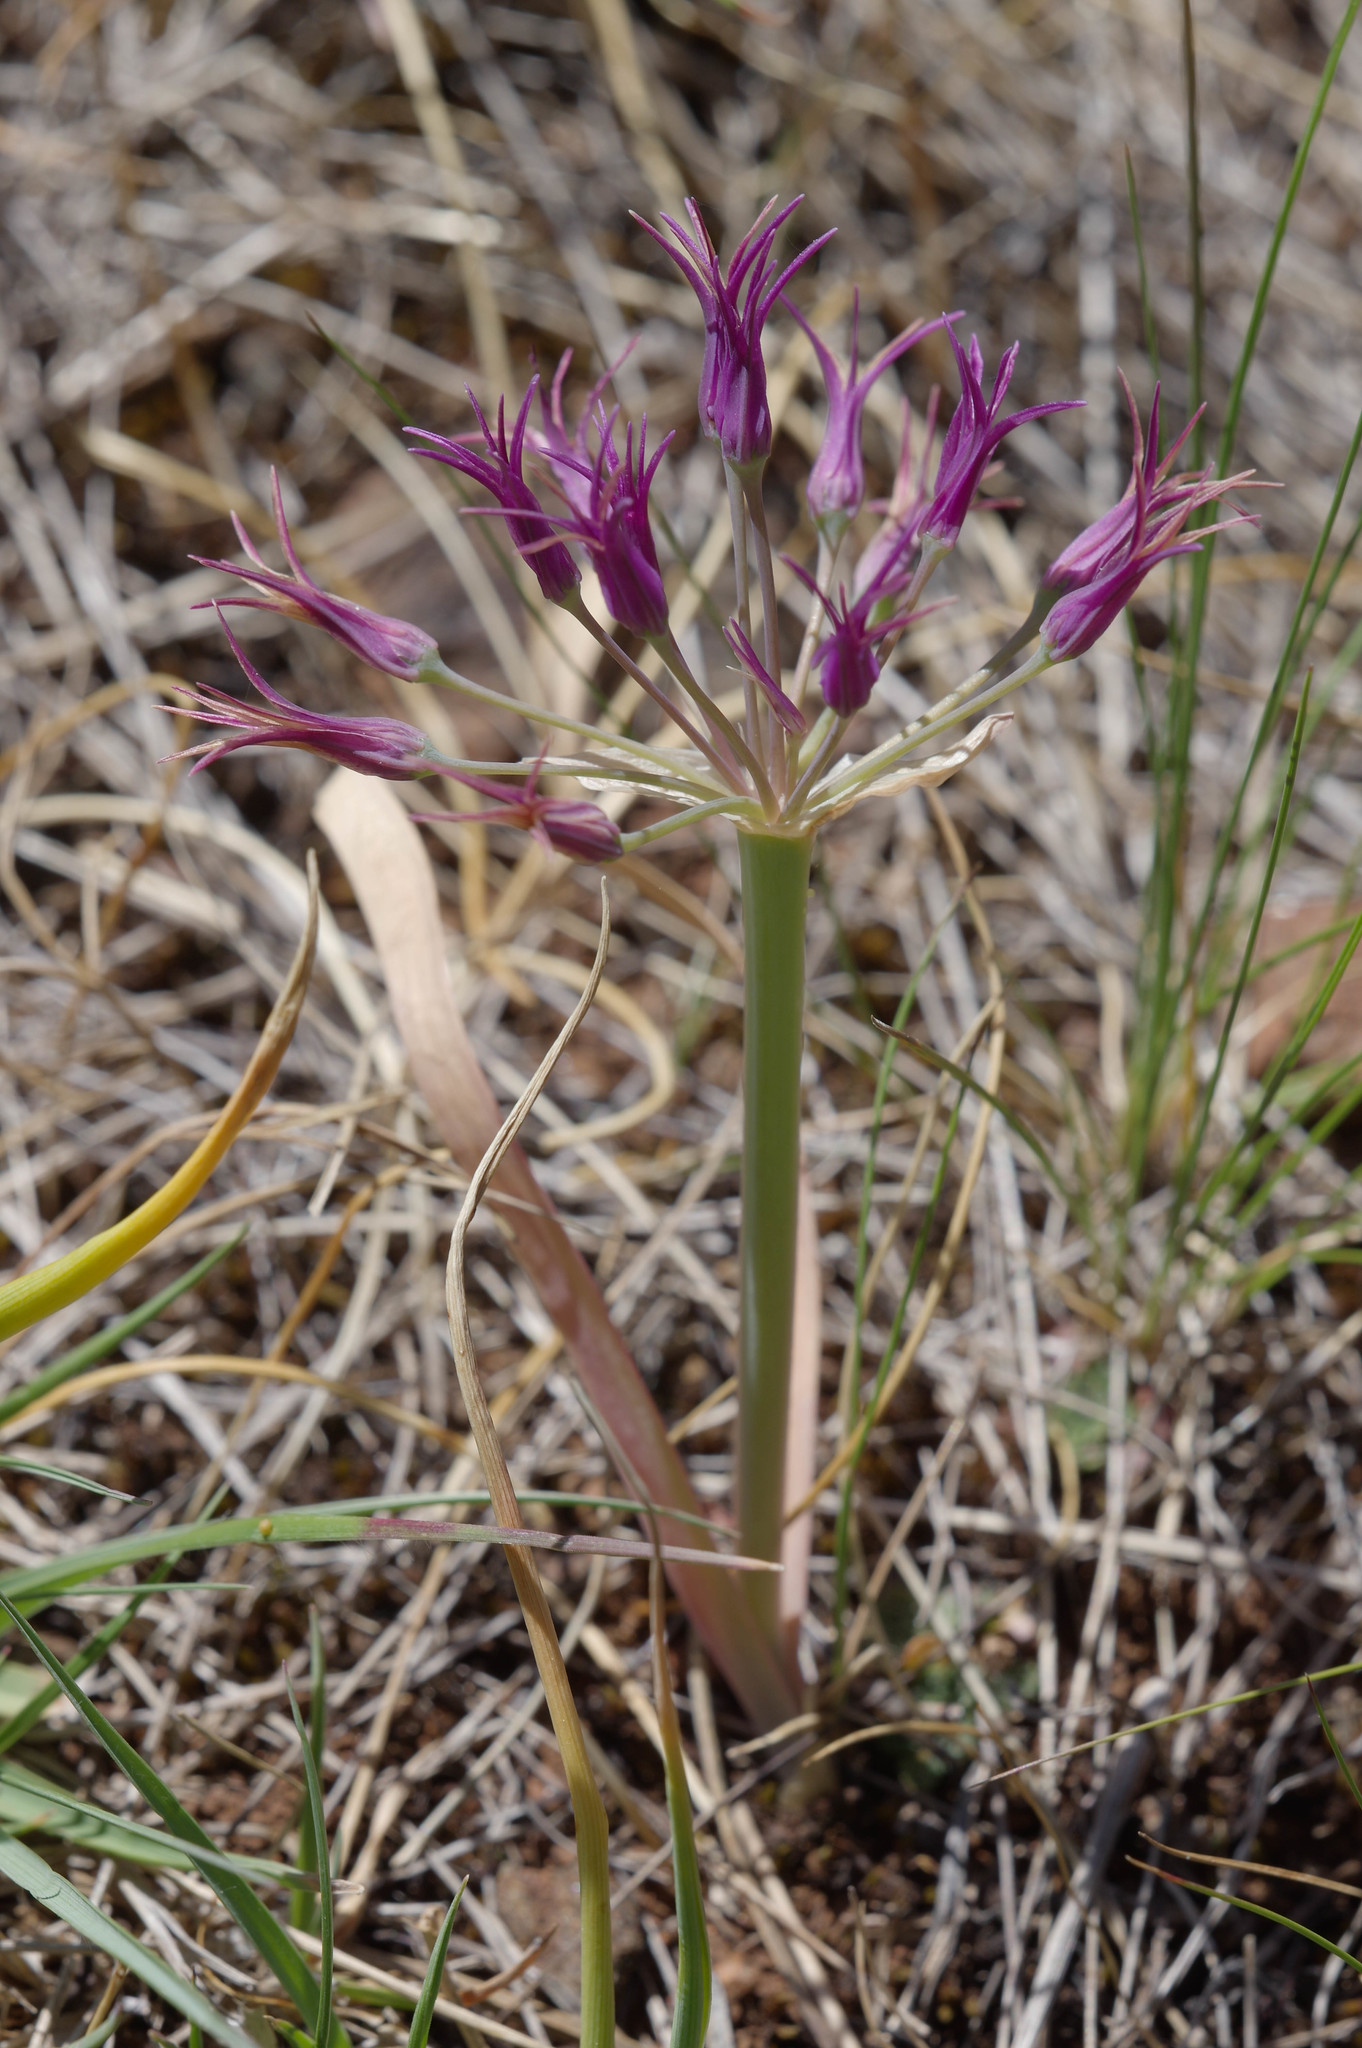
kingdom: Plantae
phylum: Tracheophyta
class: Liliopsida
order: Asparagales
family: Amaryllidaceae
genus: Allium
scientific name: Allium falcifolium
